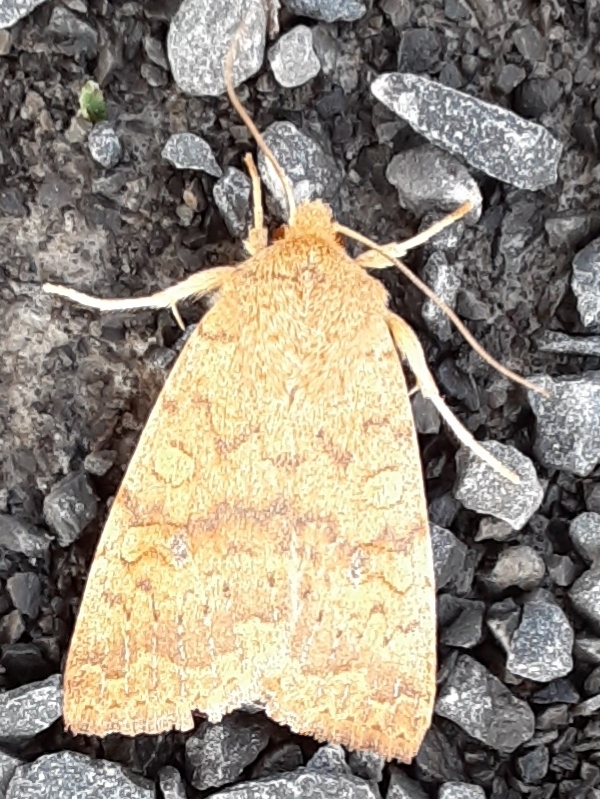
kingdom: Animalia
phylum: Arthropoda
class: Insecta
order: Lepidoptera
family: Noctuidae
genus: Agrochola
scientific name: Agrochola bicolorago
